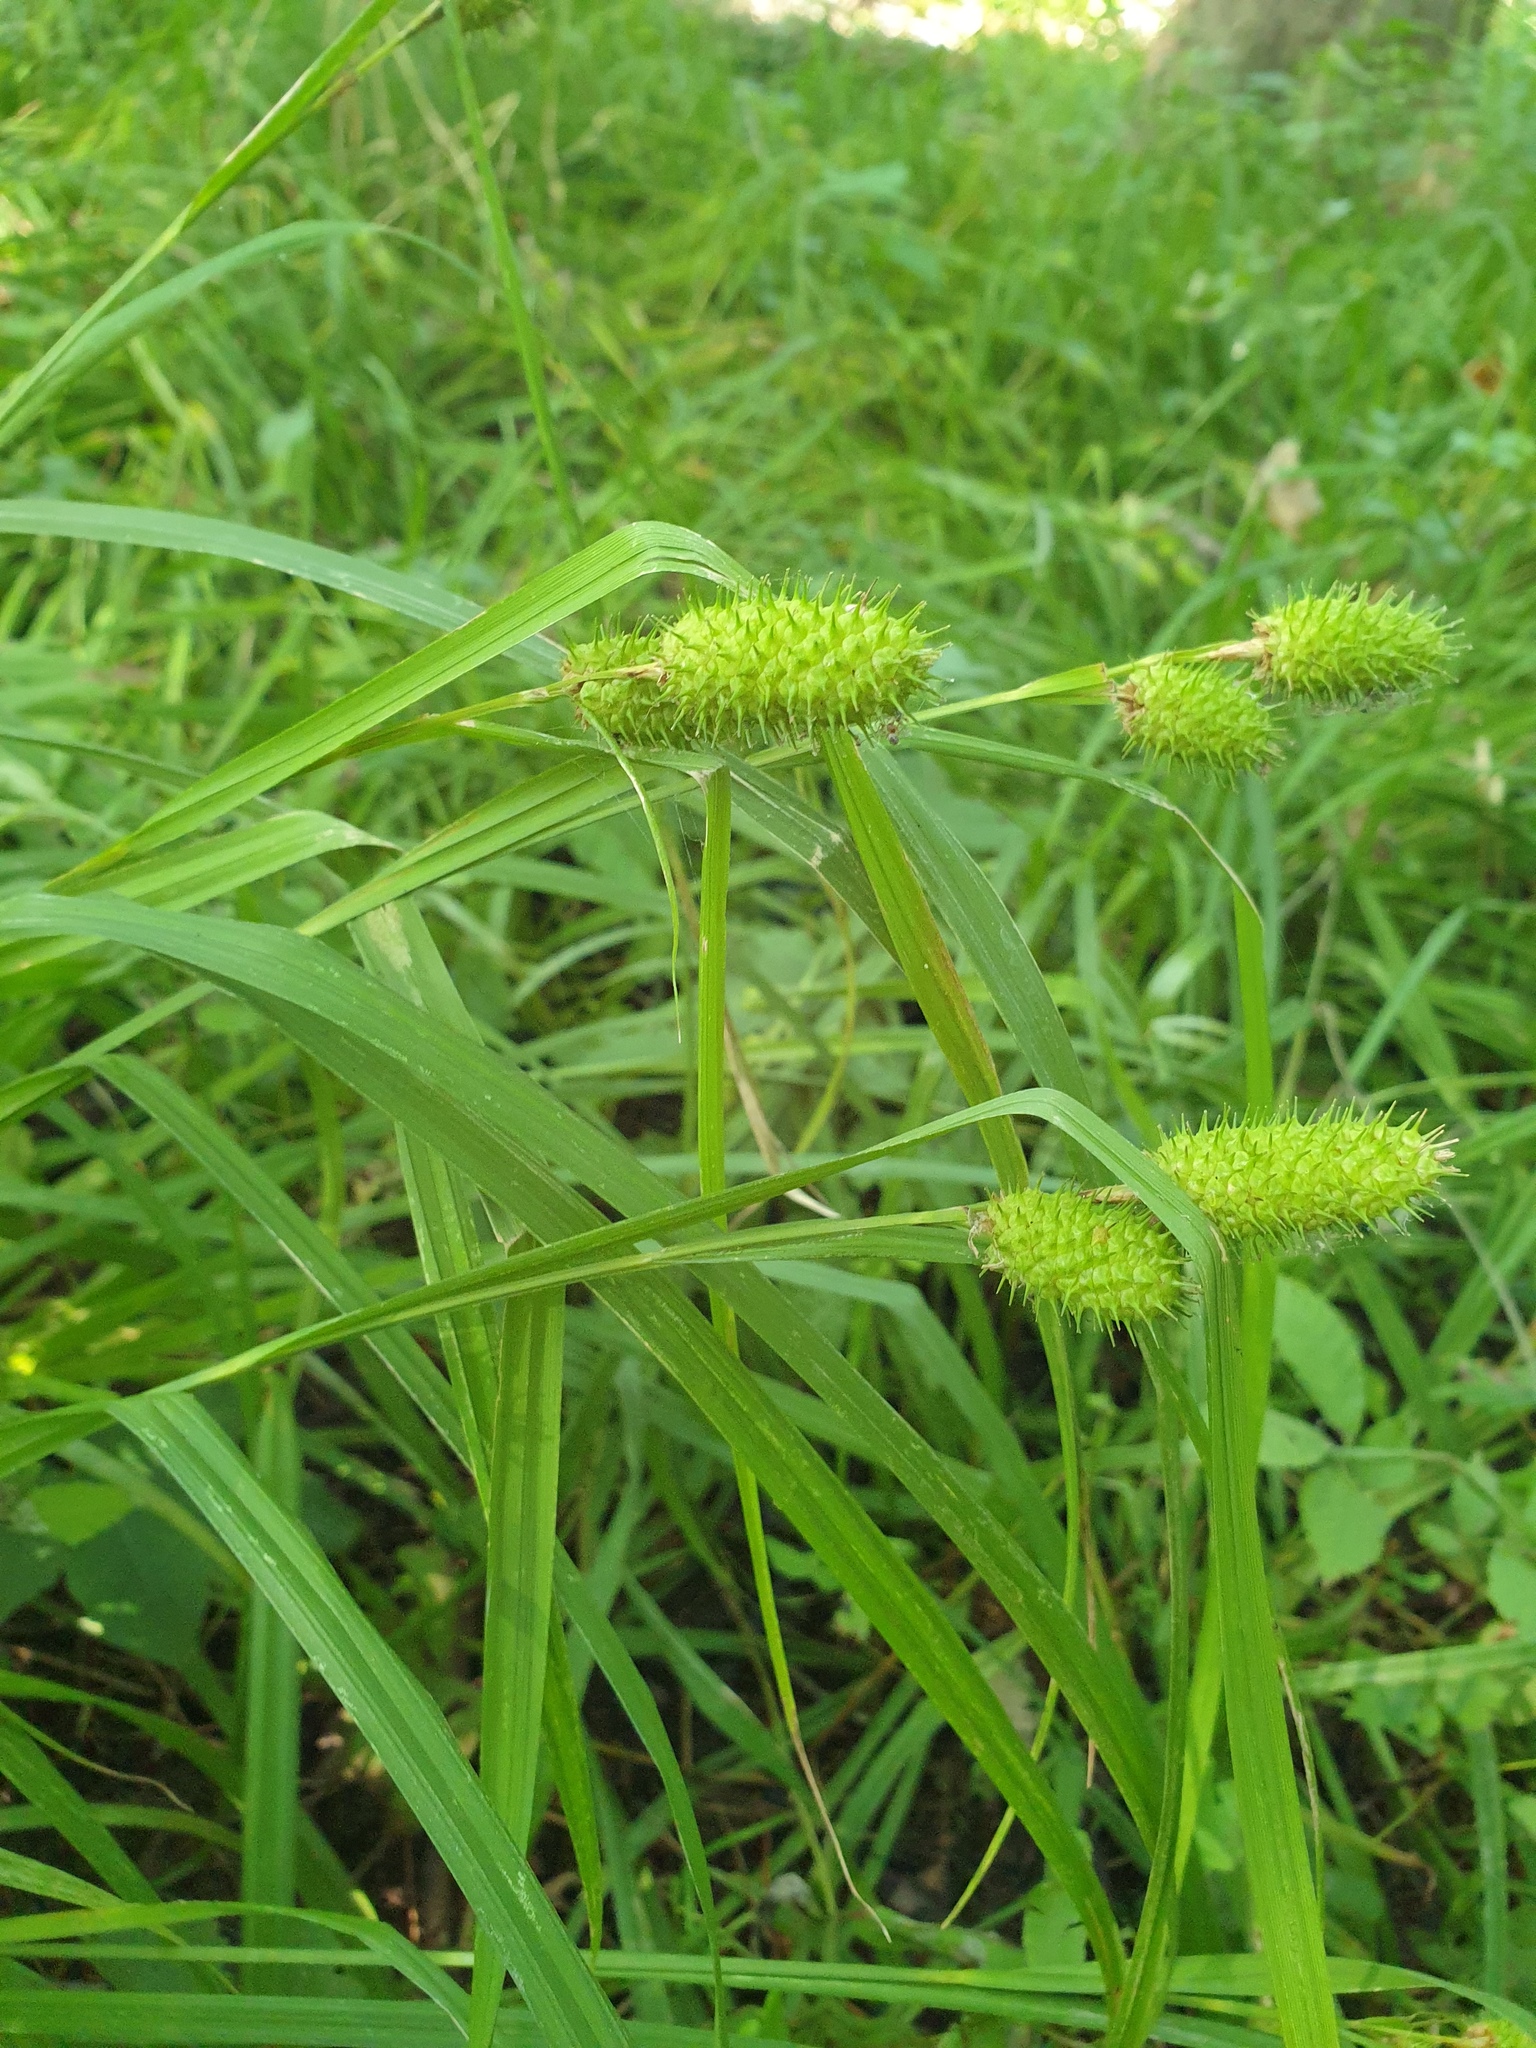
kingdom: Plantae
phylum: Tracheophyta
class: Liliopsida
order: Poales
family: Cyperaceae
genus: Carex
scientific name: Carex typhina
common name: Cattail sedge
